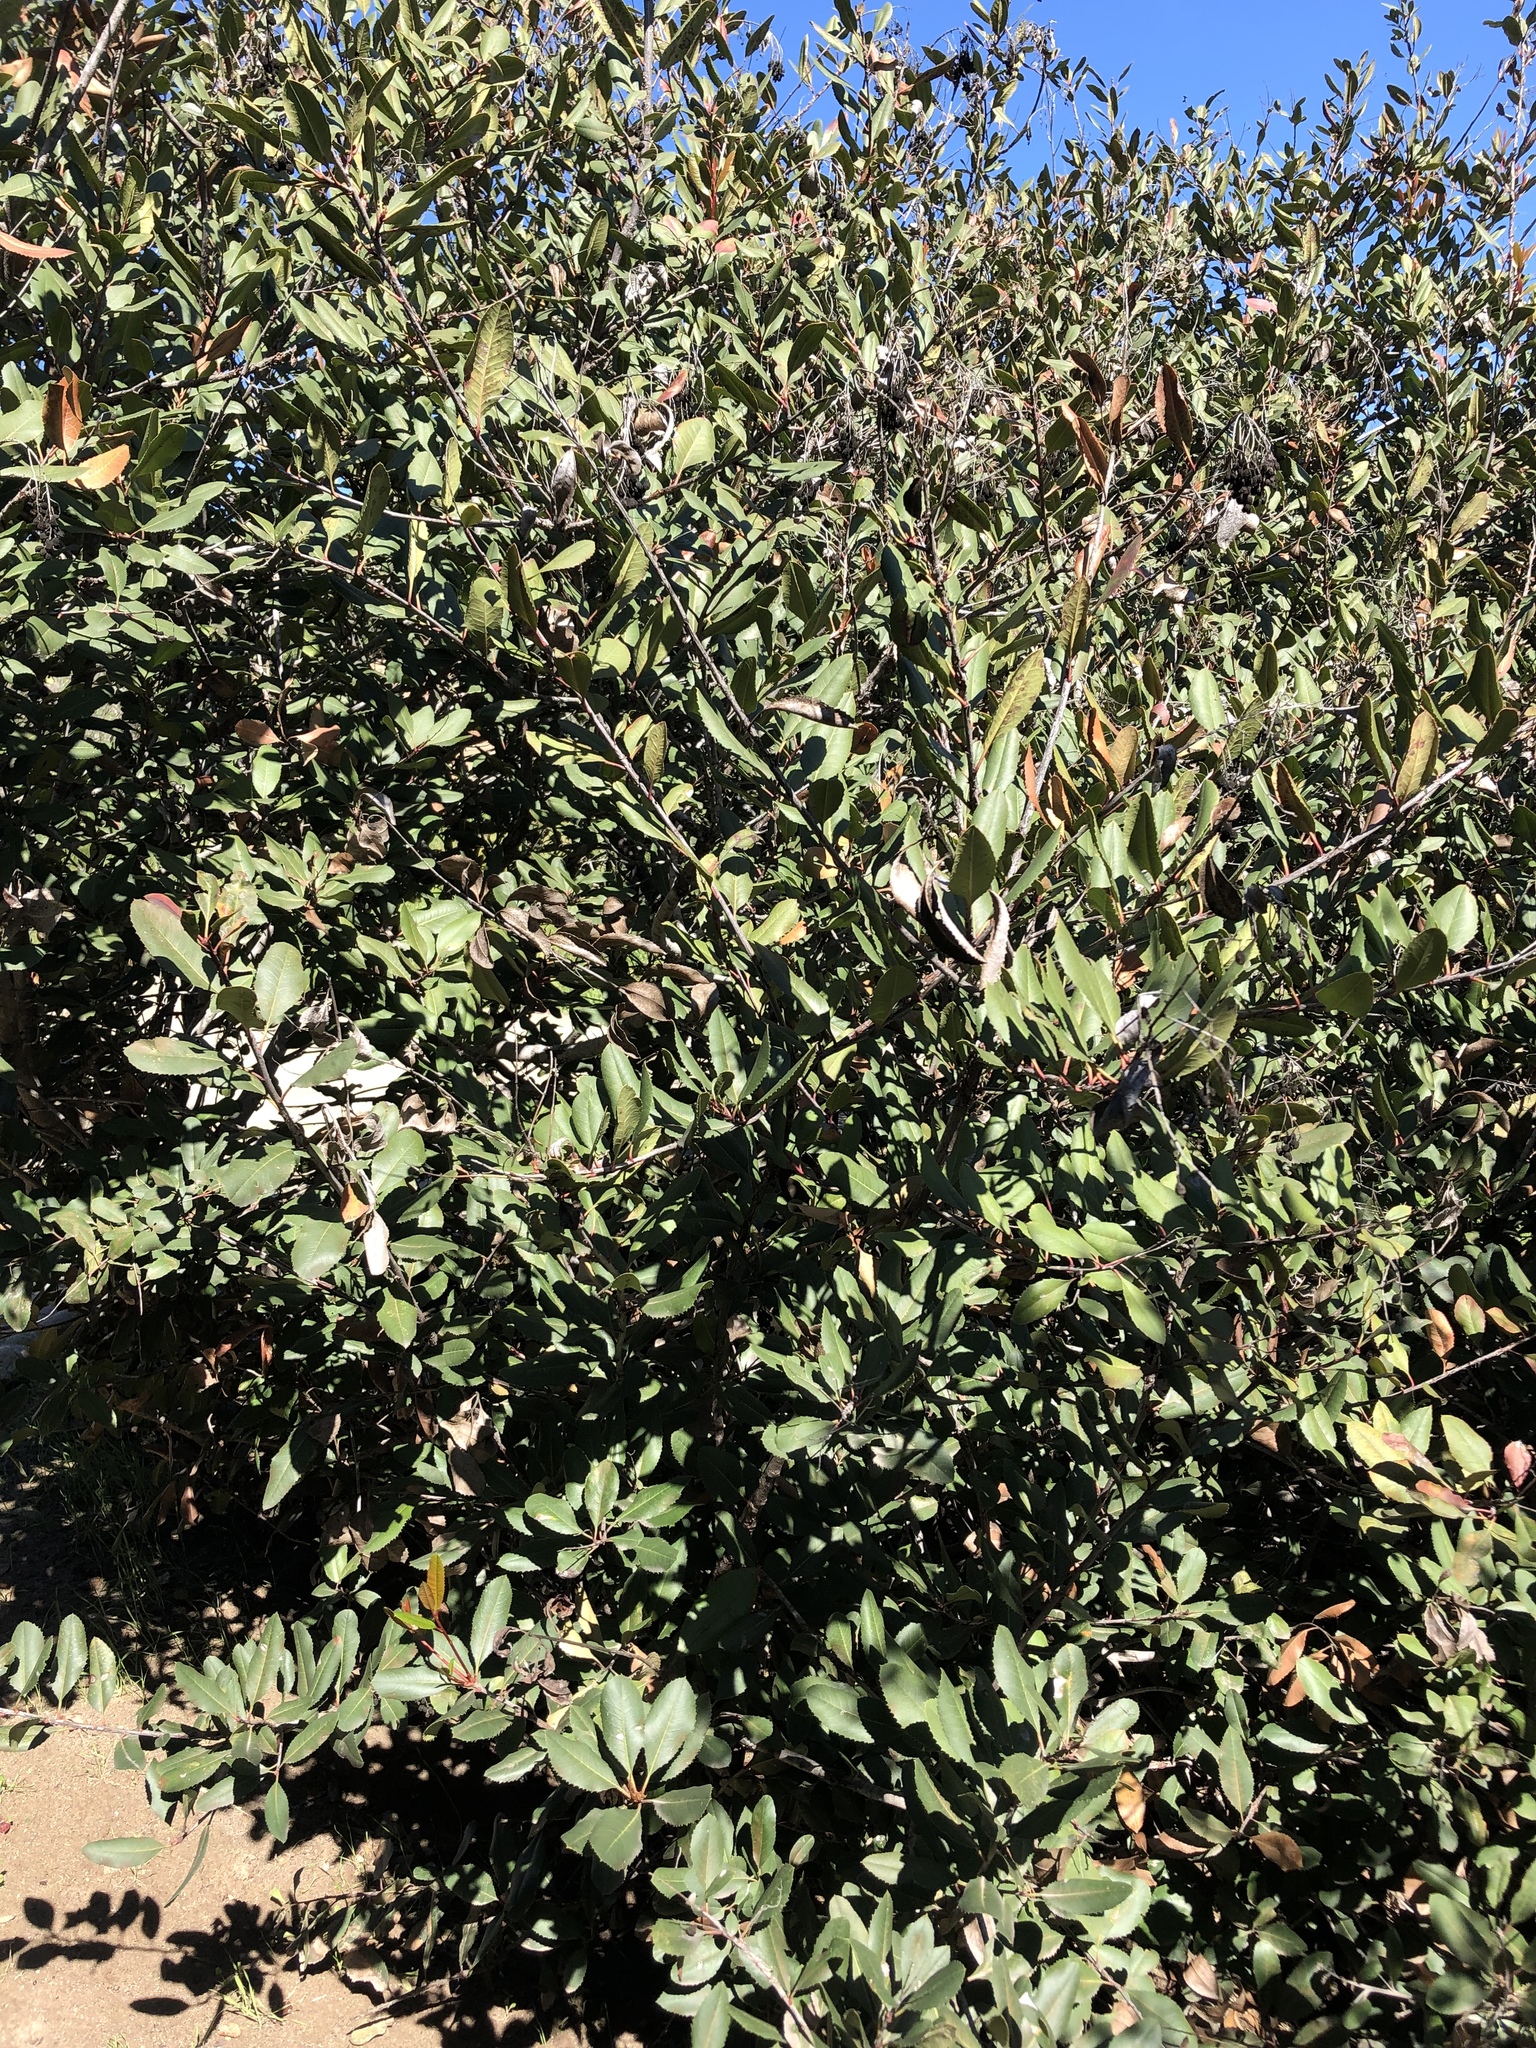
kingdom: Plantae
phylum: Tracheophyta
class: Magnoliopsida
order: Rosales
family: Rosaceae
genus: Heteromeles
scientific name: Heteromeles arbutifolia
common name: California-holly
